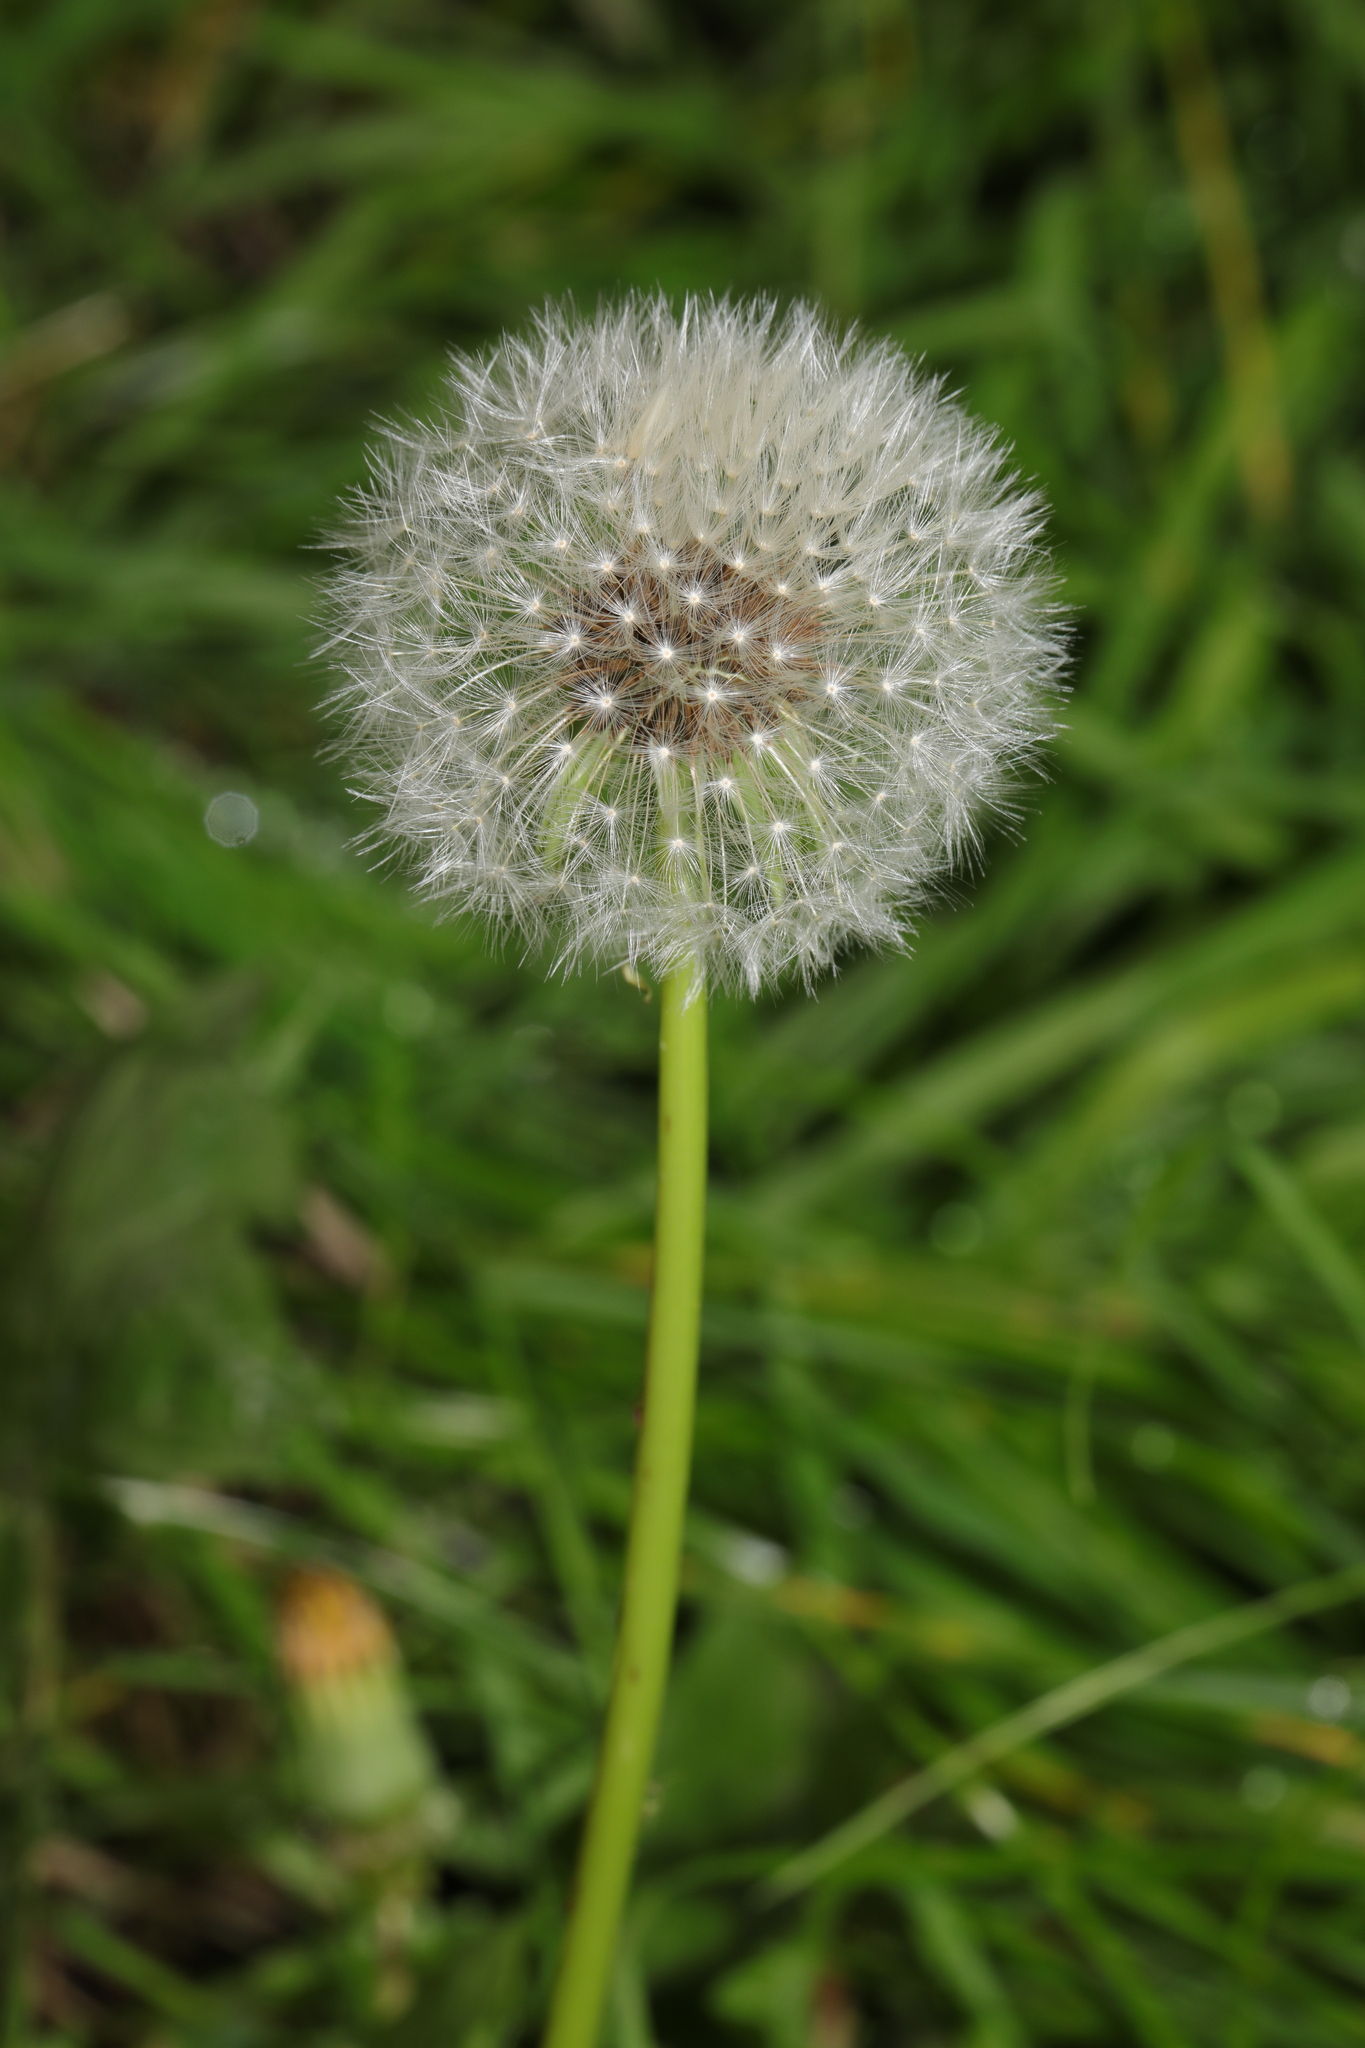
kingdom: Plantae
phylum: Tracheophyta
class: Magnoliopsida
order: Asterales
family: Asteraceae
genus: Taraxacum
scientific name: Taraxacum officinale
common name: Common dandelion
